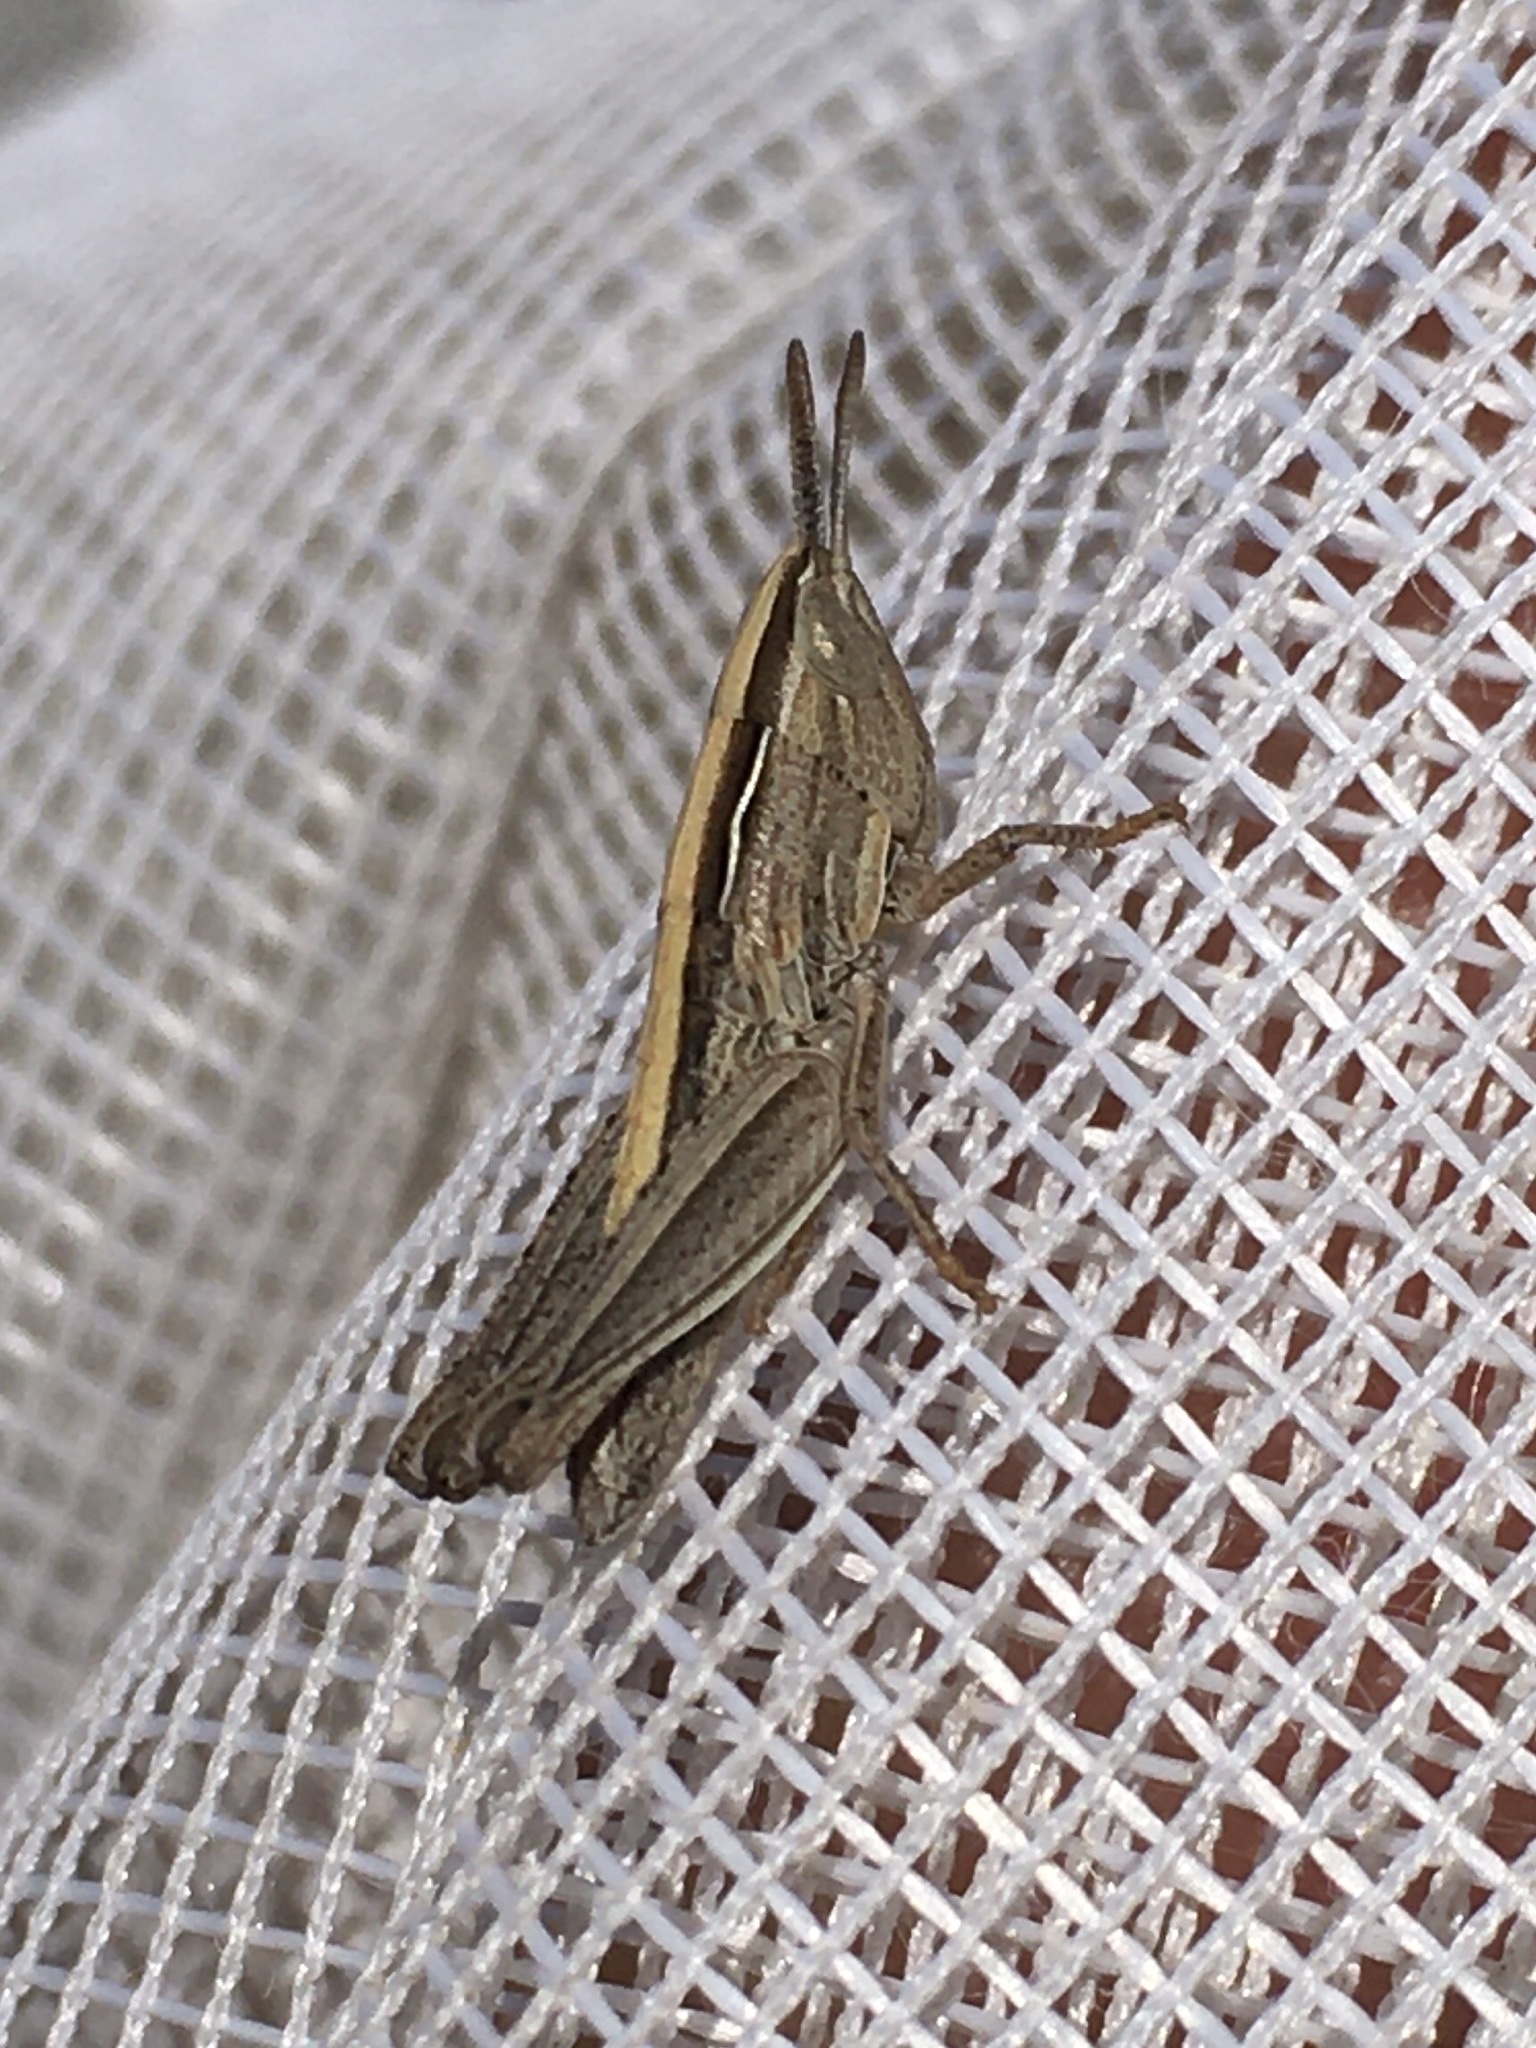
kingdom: Animalia
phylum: Arthropoda
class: Insecta
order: Orthoptera
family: Acrididae
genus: Eritettix
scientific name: Eritettix simplex
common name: Velvet-striped grasshopper
